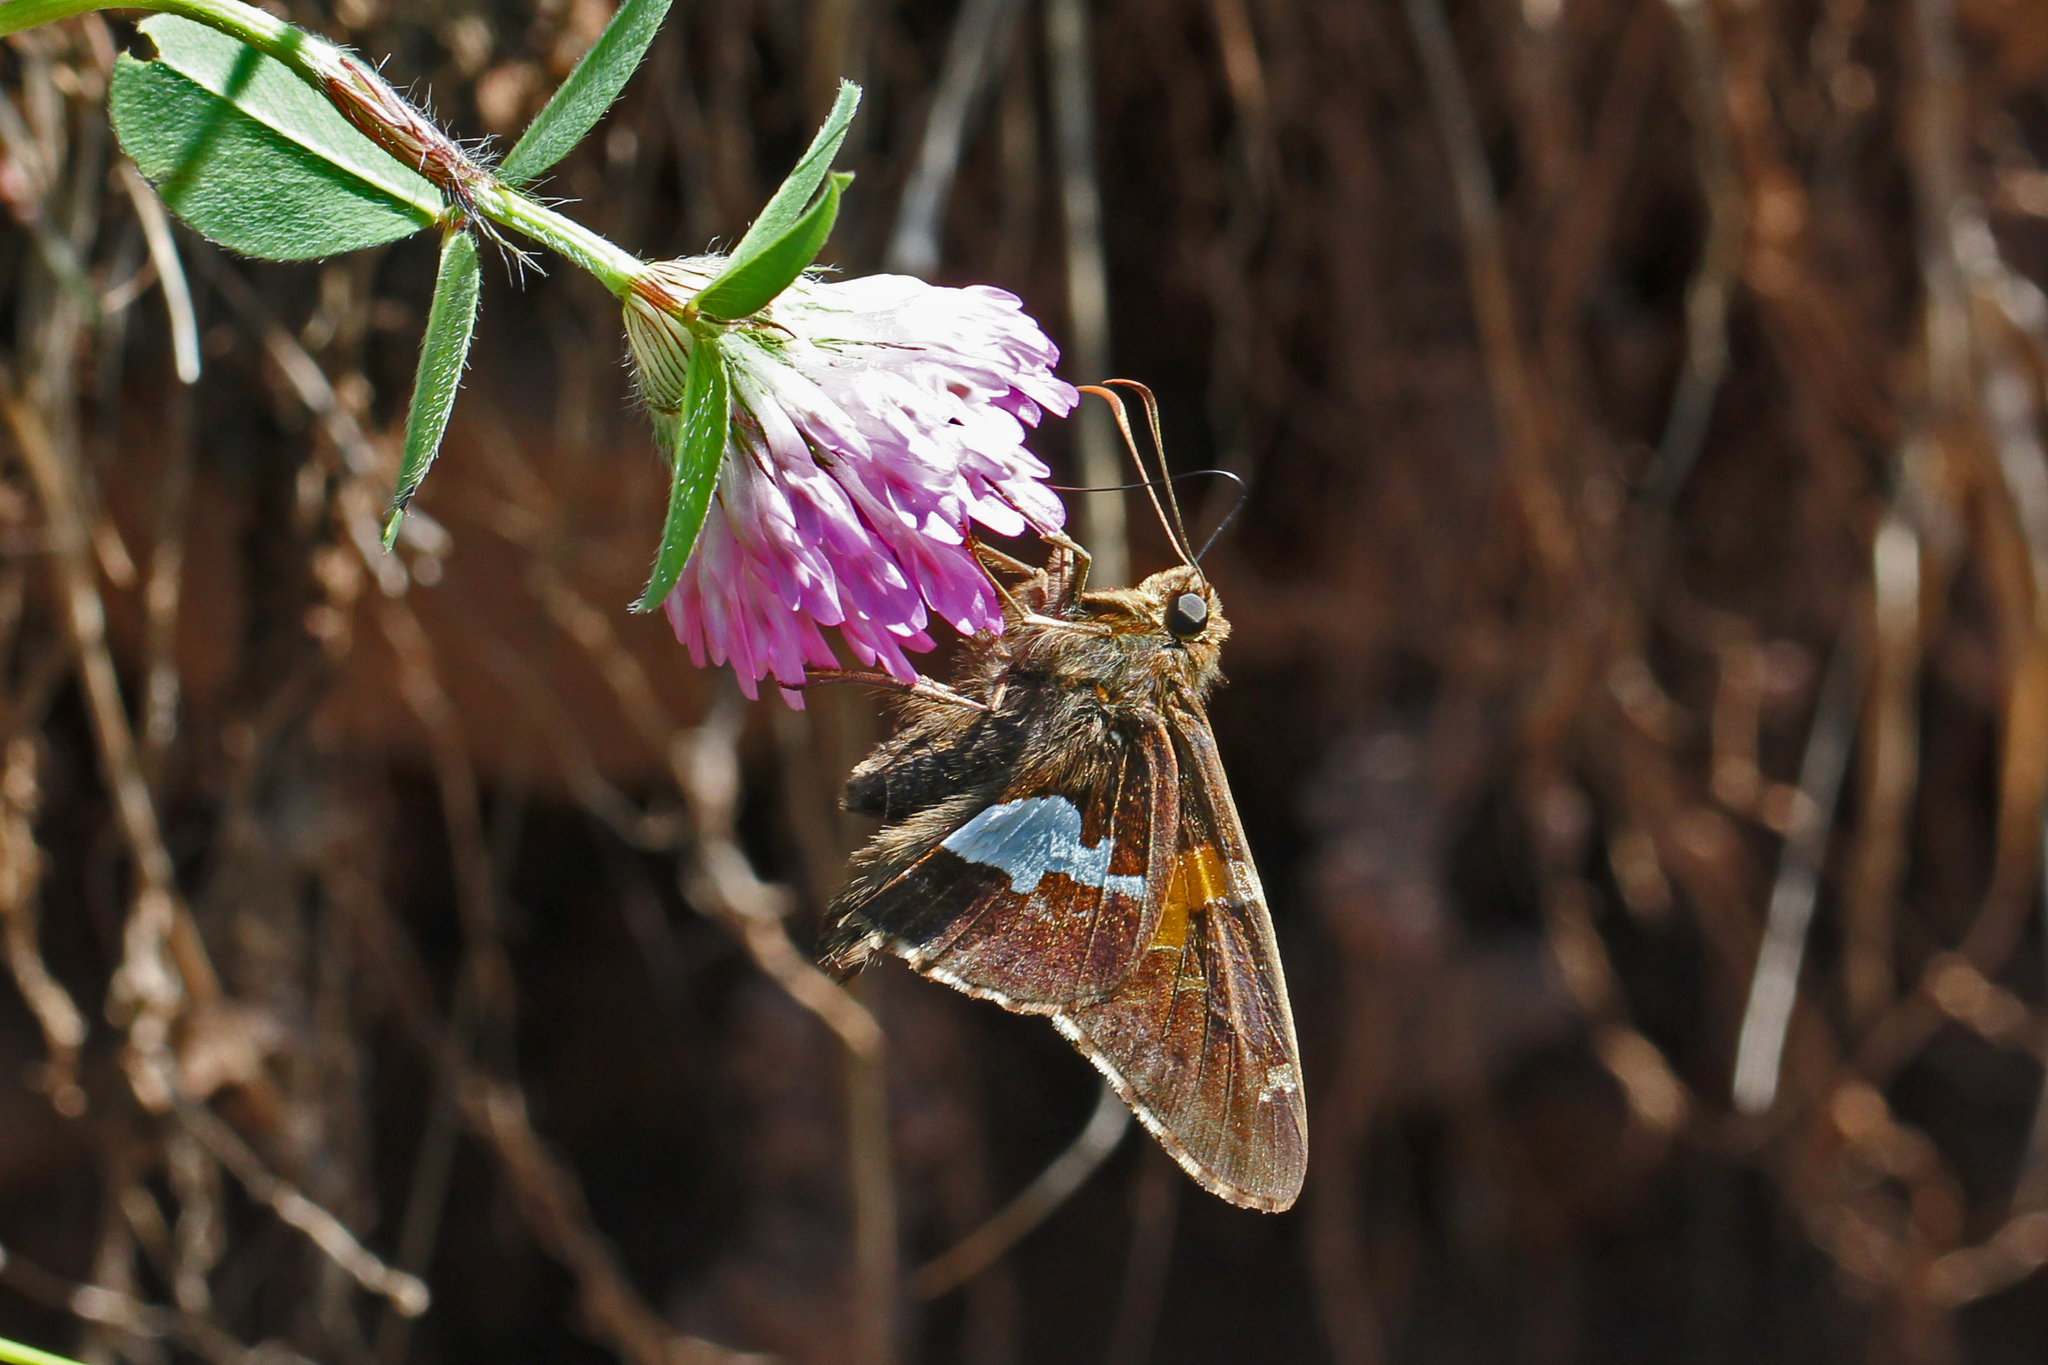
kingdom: Animalia
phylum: Arthropoda
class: Insecta
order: Lepidoptera
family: Hesperiidae
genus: Epargyreus
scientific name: Epargyreus clarus
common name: Silver-spotted skipper
